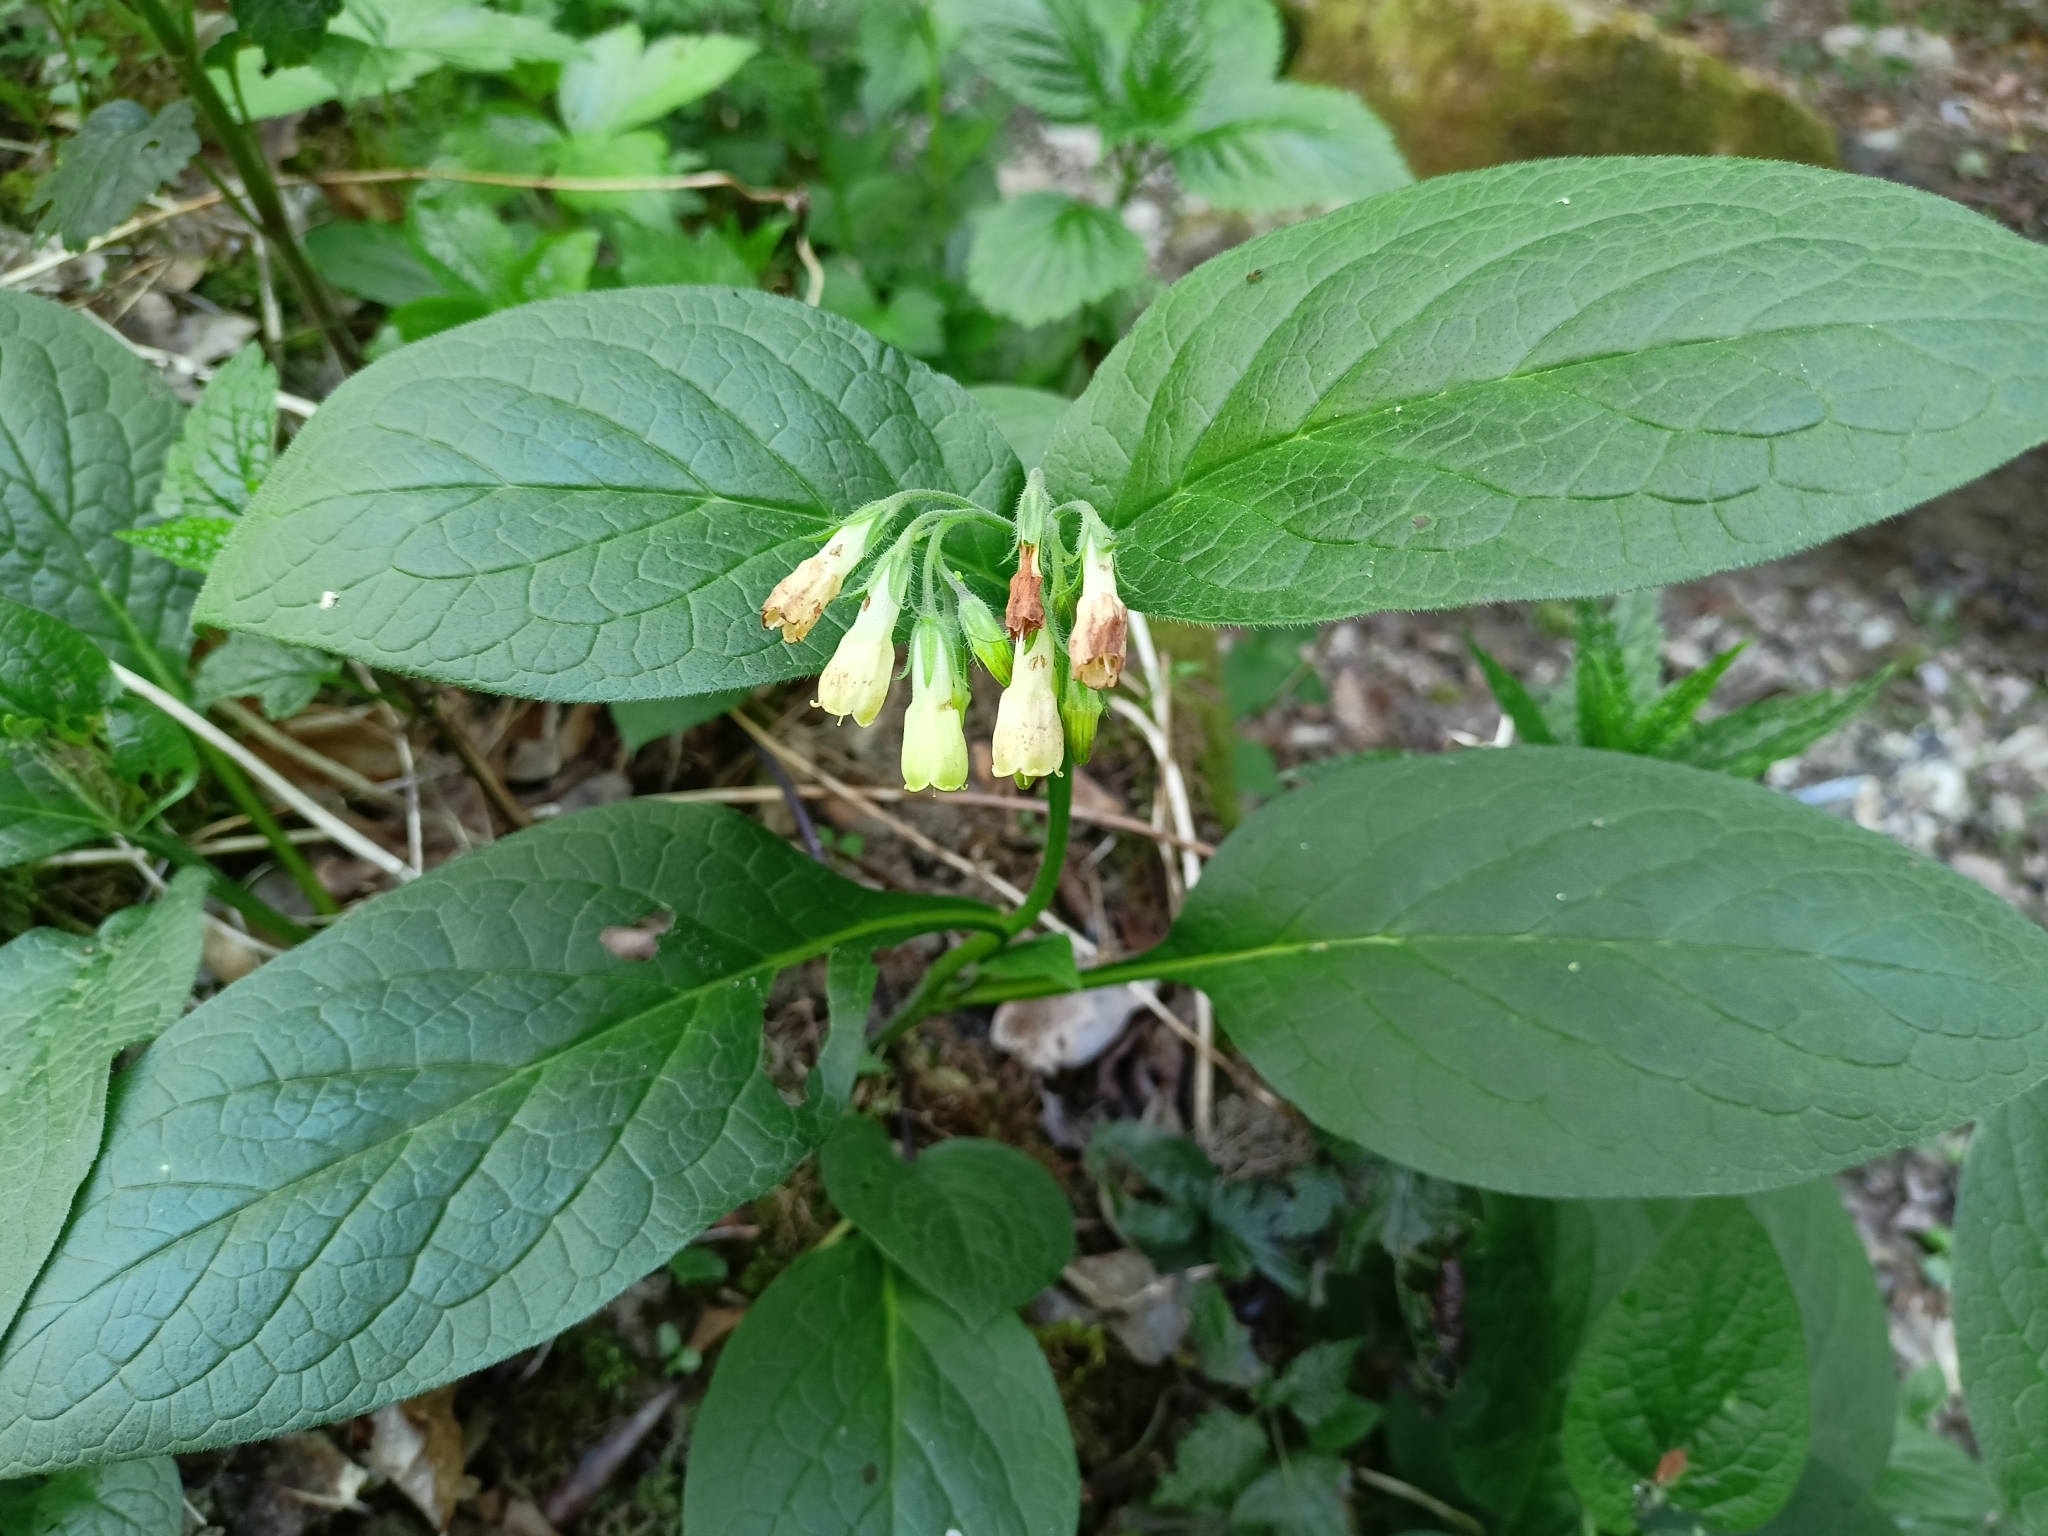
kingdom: Plantae
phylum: Tracheophyta
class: Magnoliopsida
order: Boraginales
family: Boraginaceae
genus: Symphytum
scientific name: Symphytum tuberosum
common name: Tuberous comfrey
